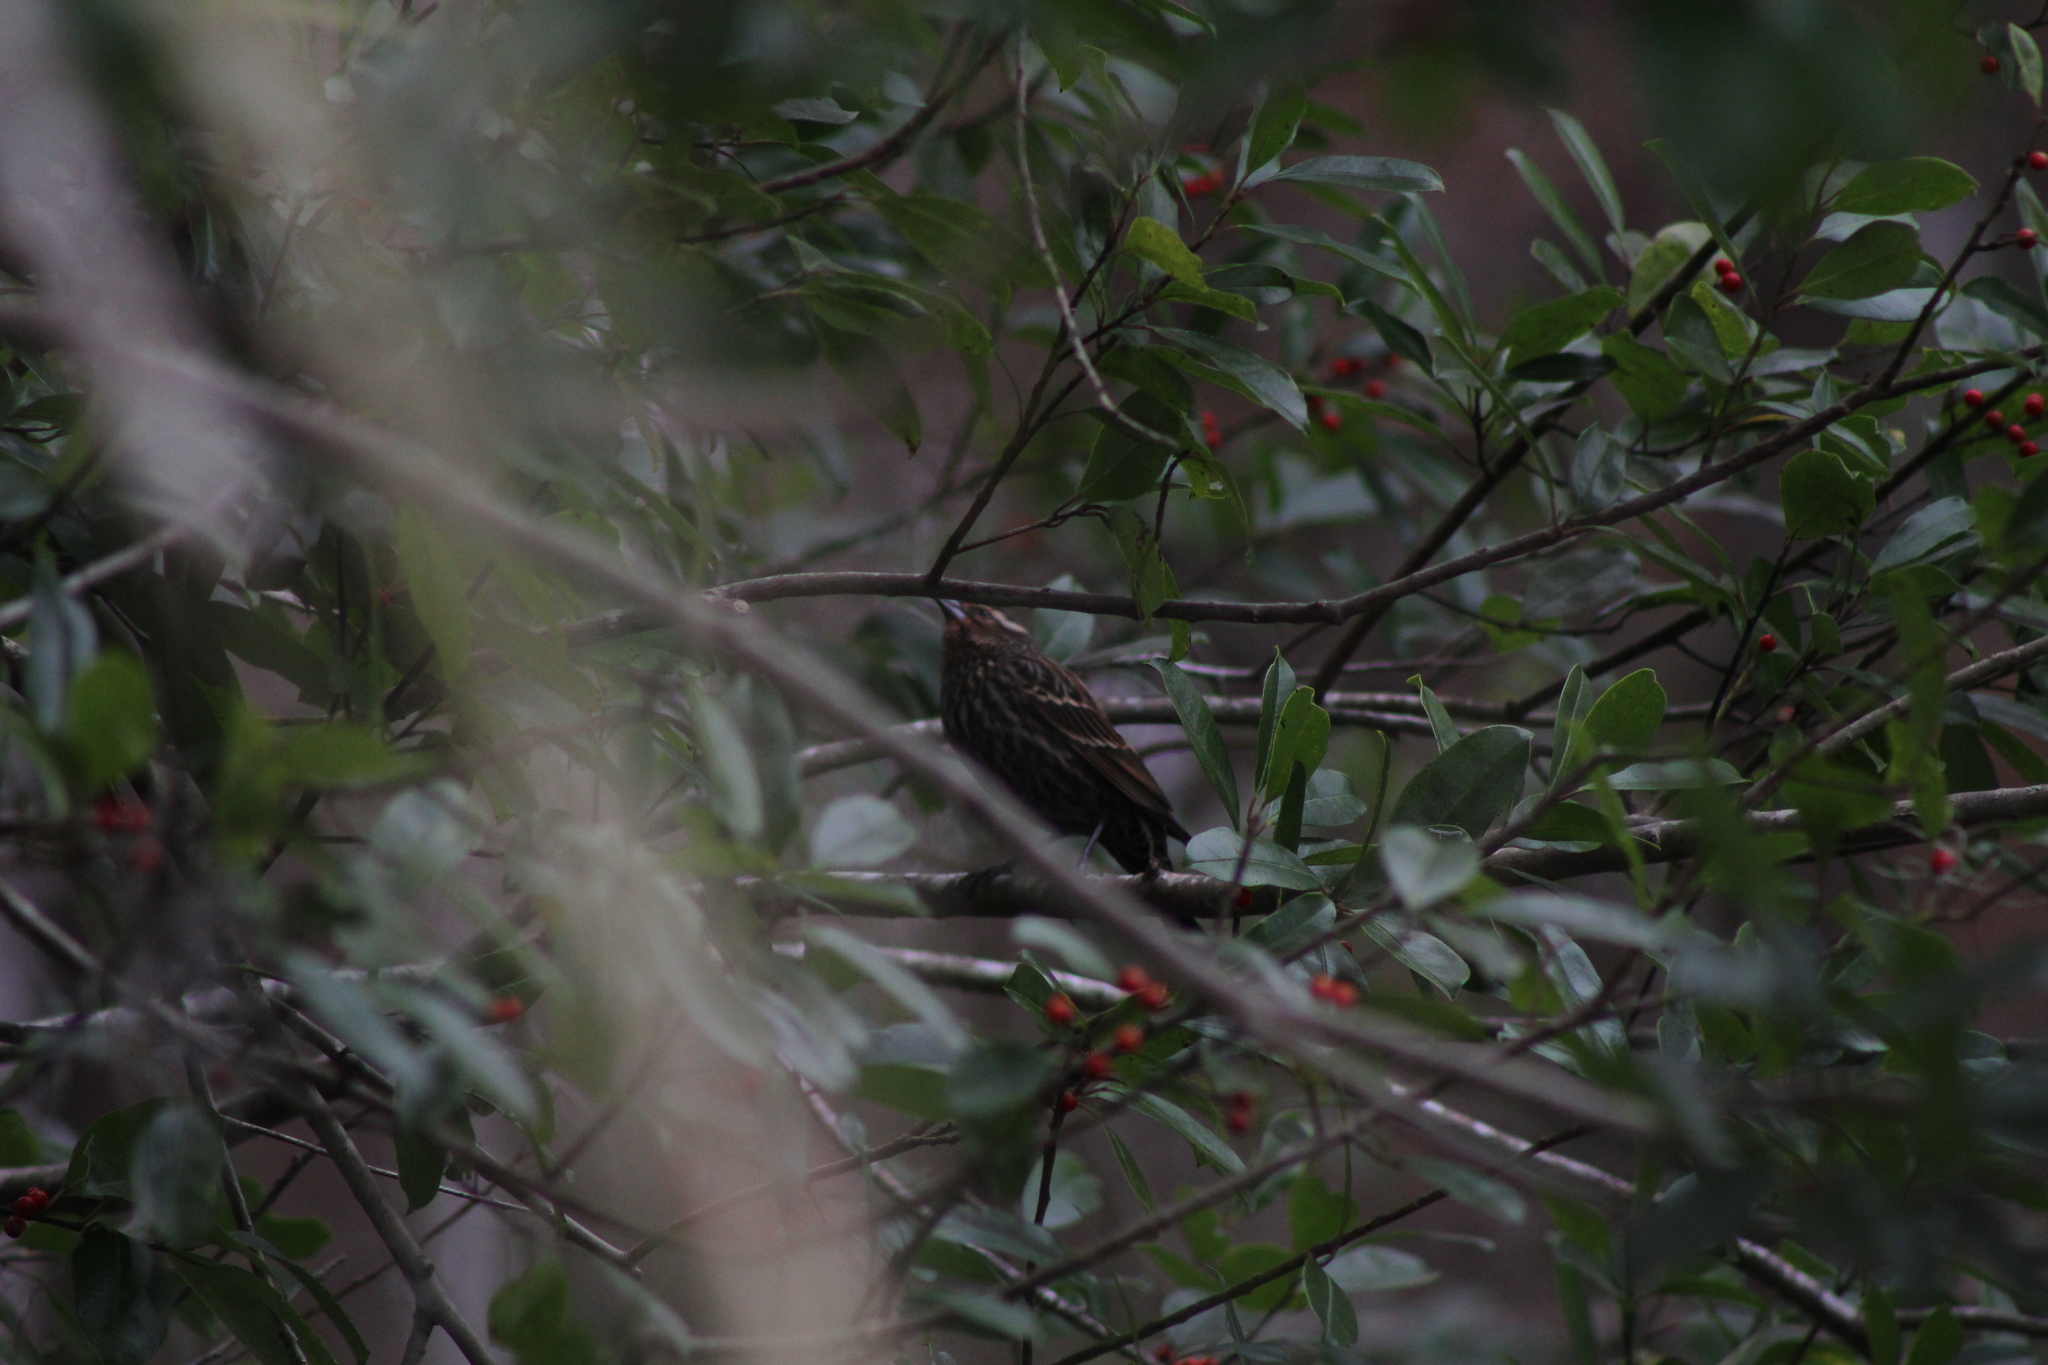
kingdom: Animalia
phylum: Chordata
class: Aves
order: Passeriformes
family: Icteridae
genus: Agelaius
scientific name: Agelaius phoeniceus
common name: Red-winged blackbird
